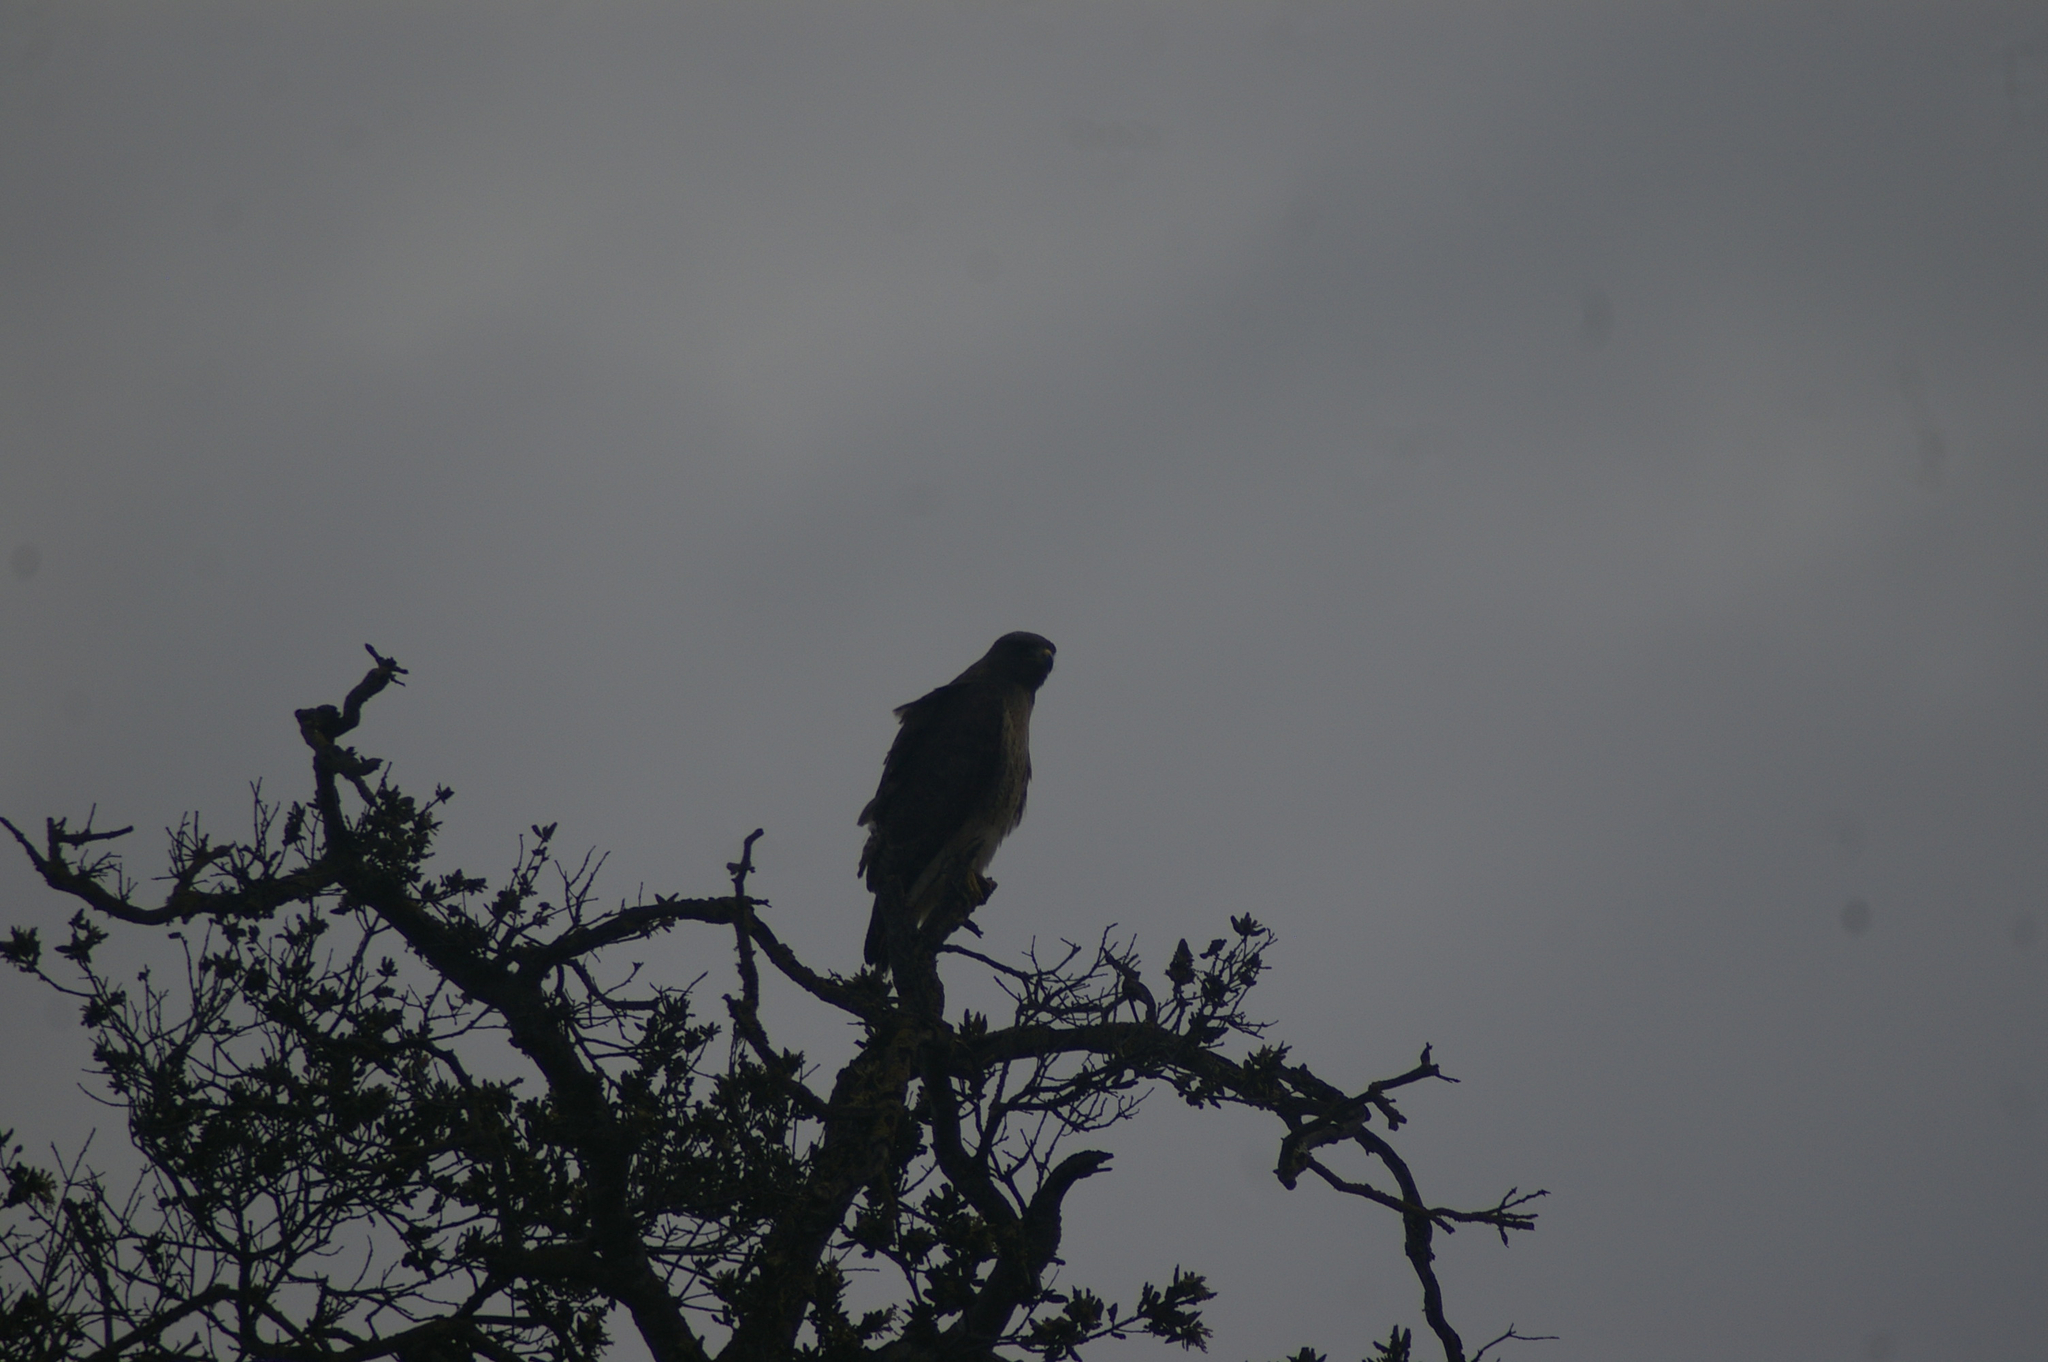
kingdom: Animalia
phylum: Chordata
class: Aves
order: Accipitriformes
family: Accipitridae
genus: Buteo
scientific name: Buteo jamaicensis
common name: Red-tailed hawk
